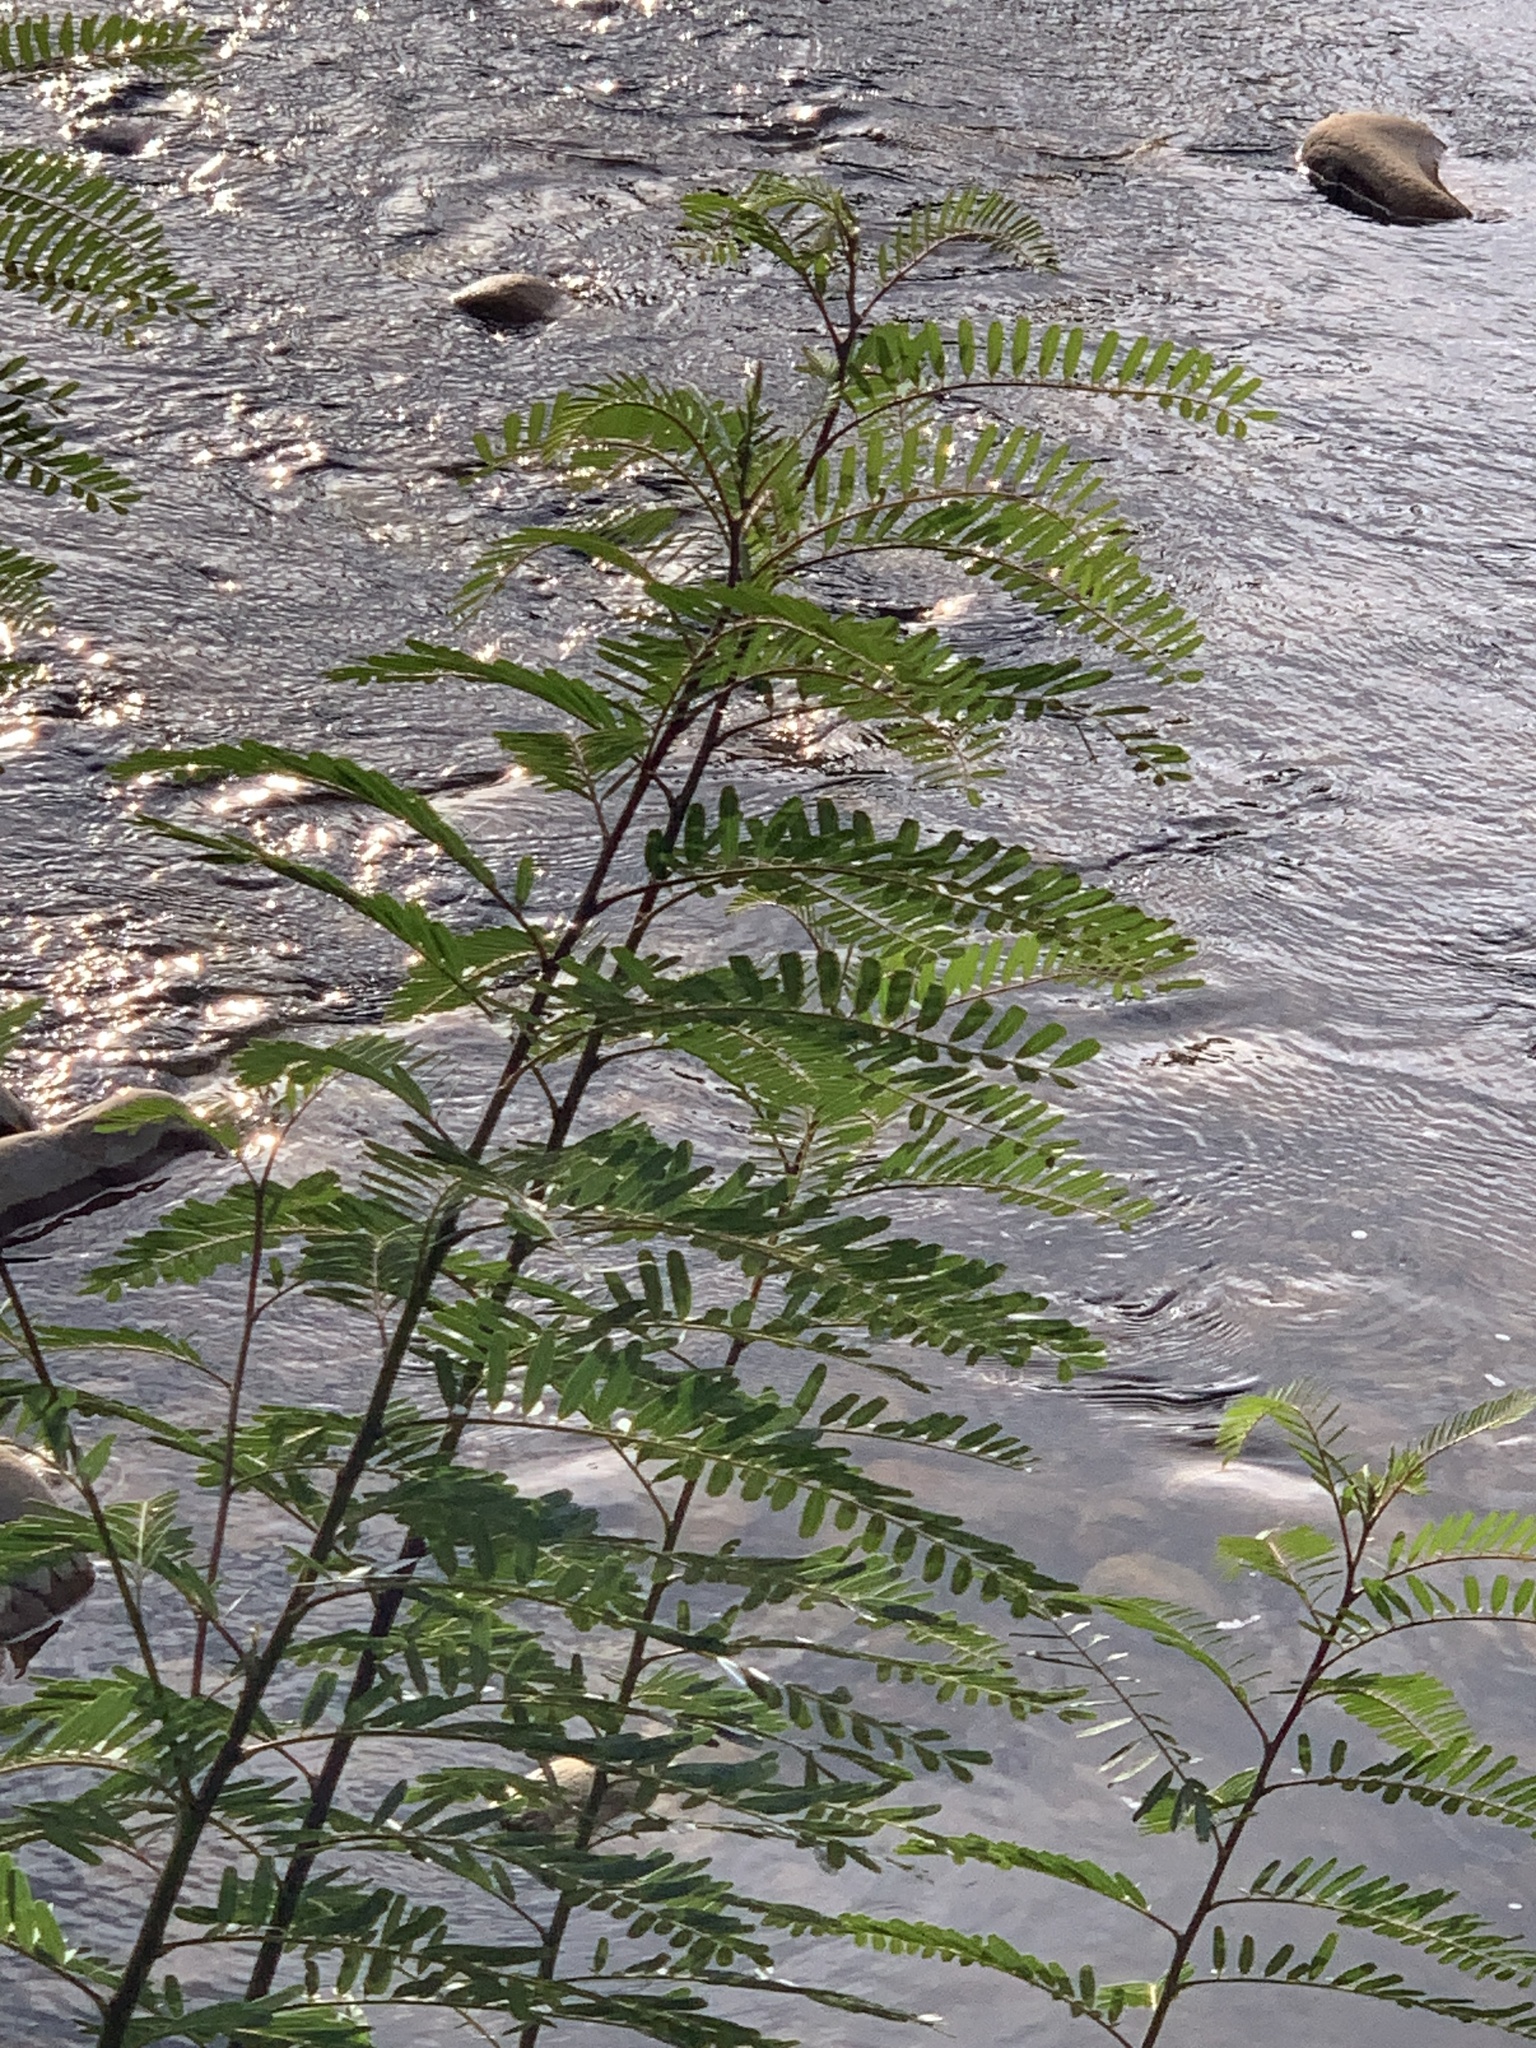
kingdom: Plantae
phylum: Tracheophyta
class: Magnoliopsida
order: Fabales
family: Fabaceae
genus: Sesbania
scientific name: Sesbania punicea
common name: Rattlebox
